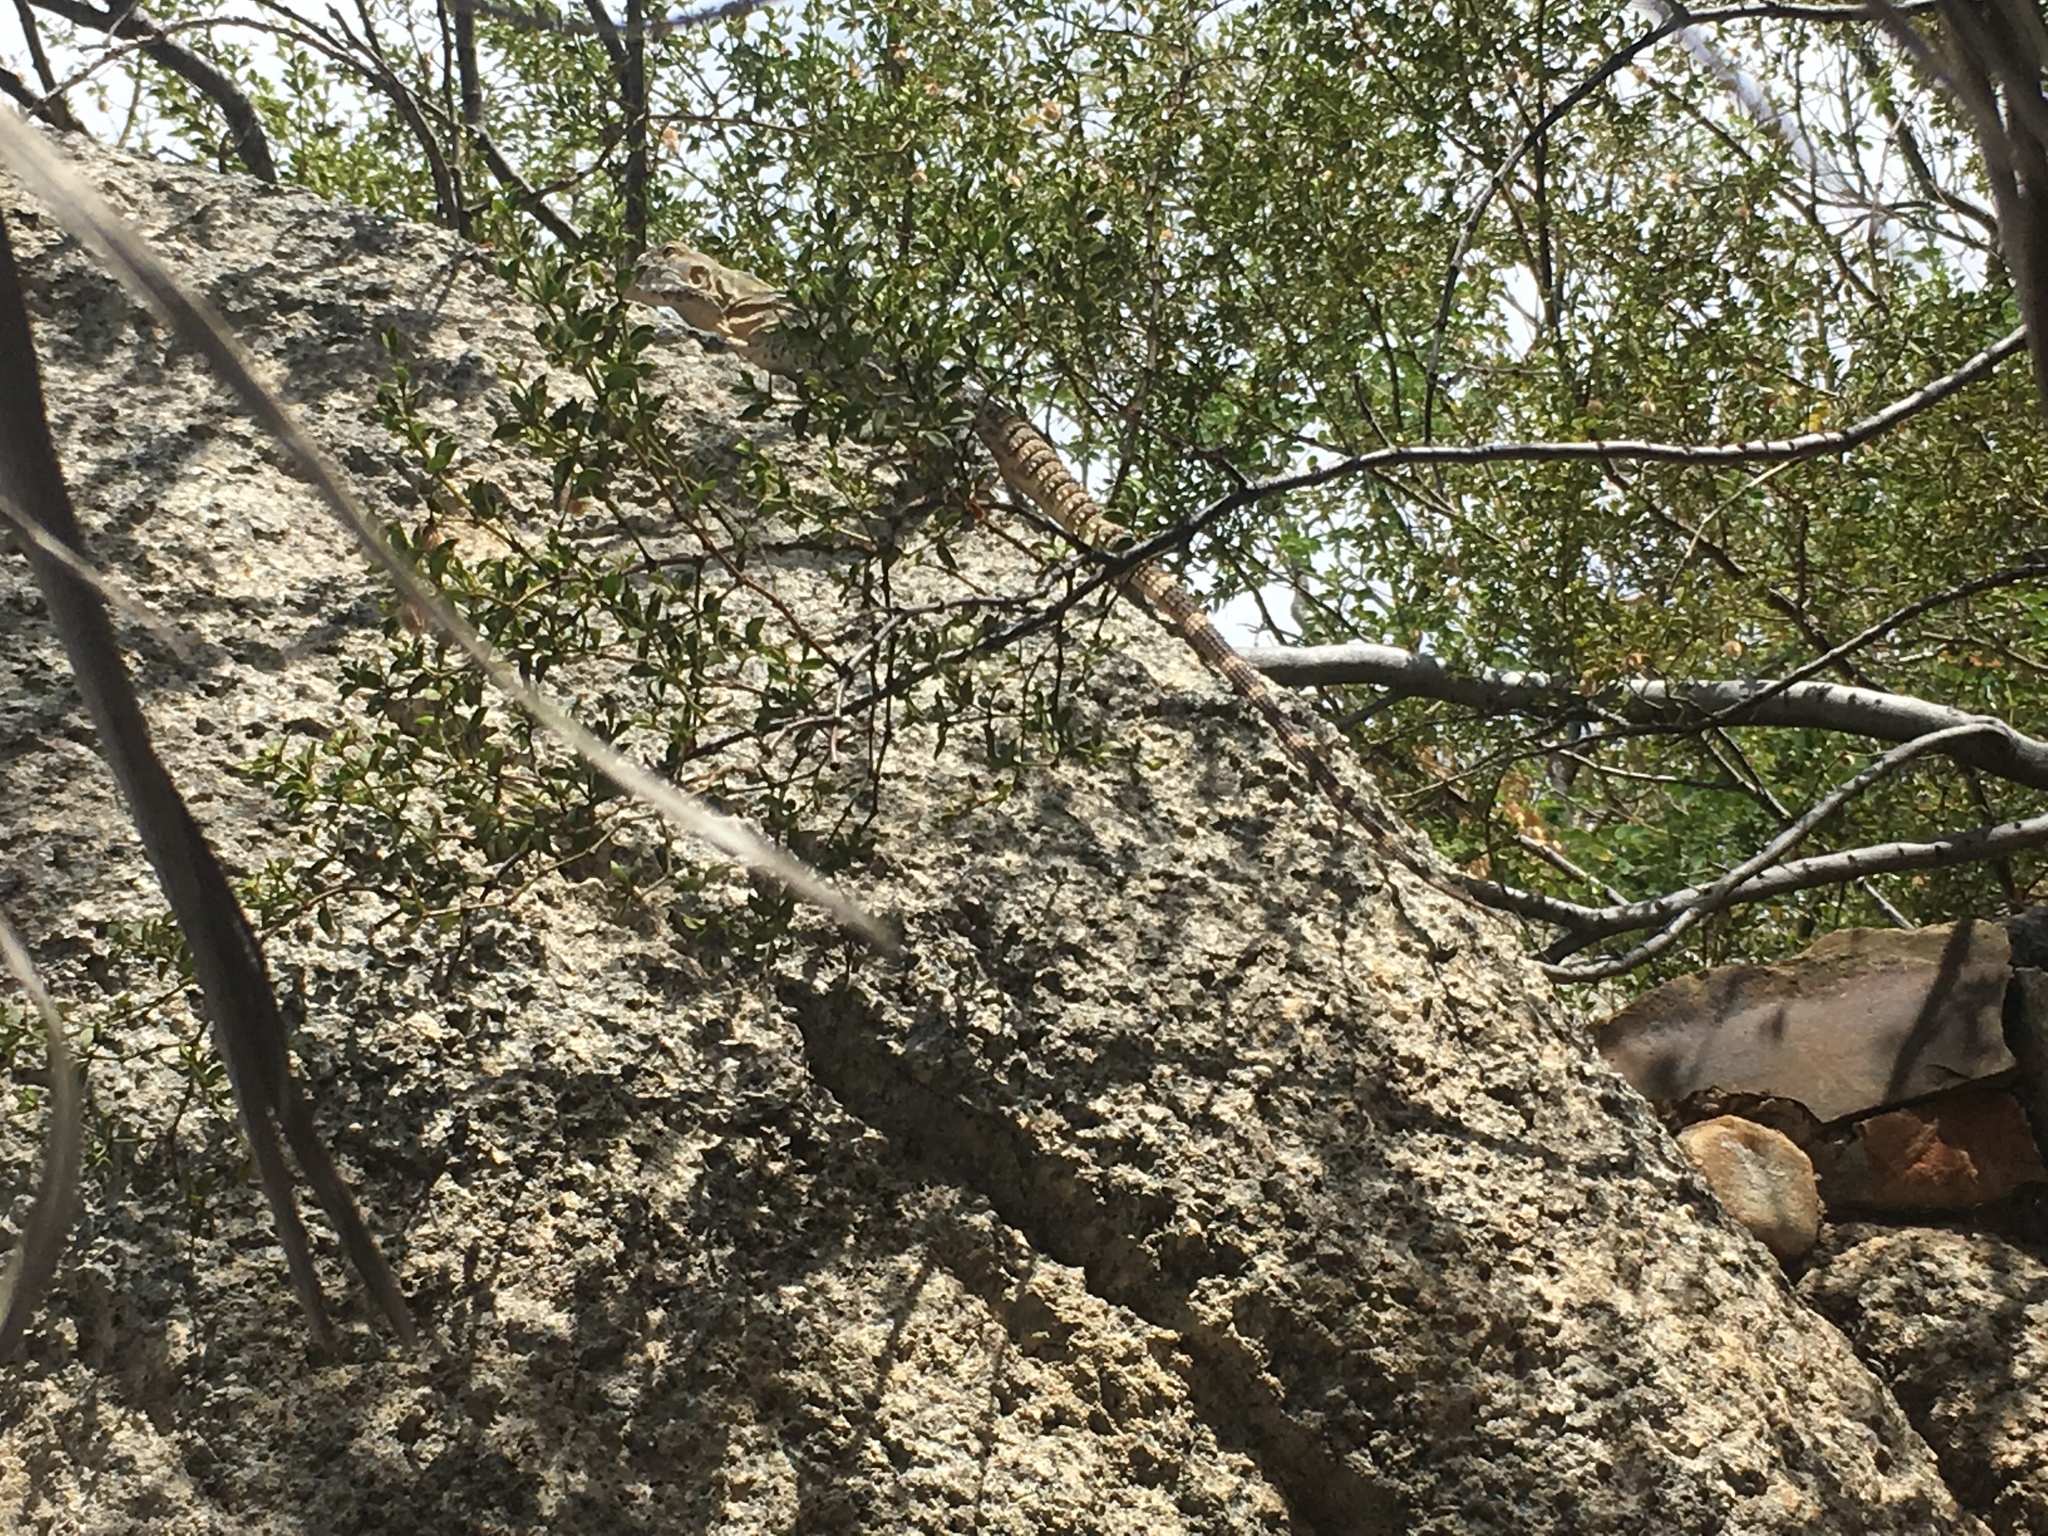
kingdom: Animalia
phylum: Chordata
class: Squamata
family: Iguanidae
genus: Ctenosaura
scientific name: Ctenosaura
